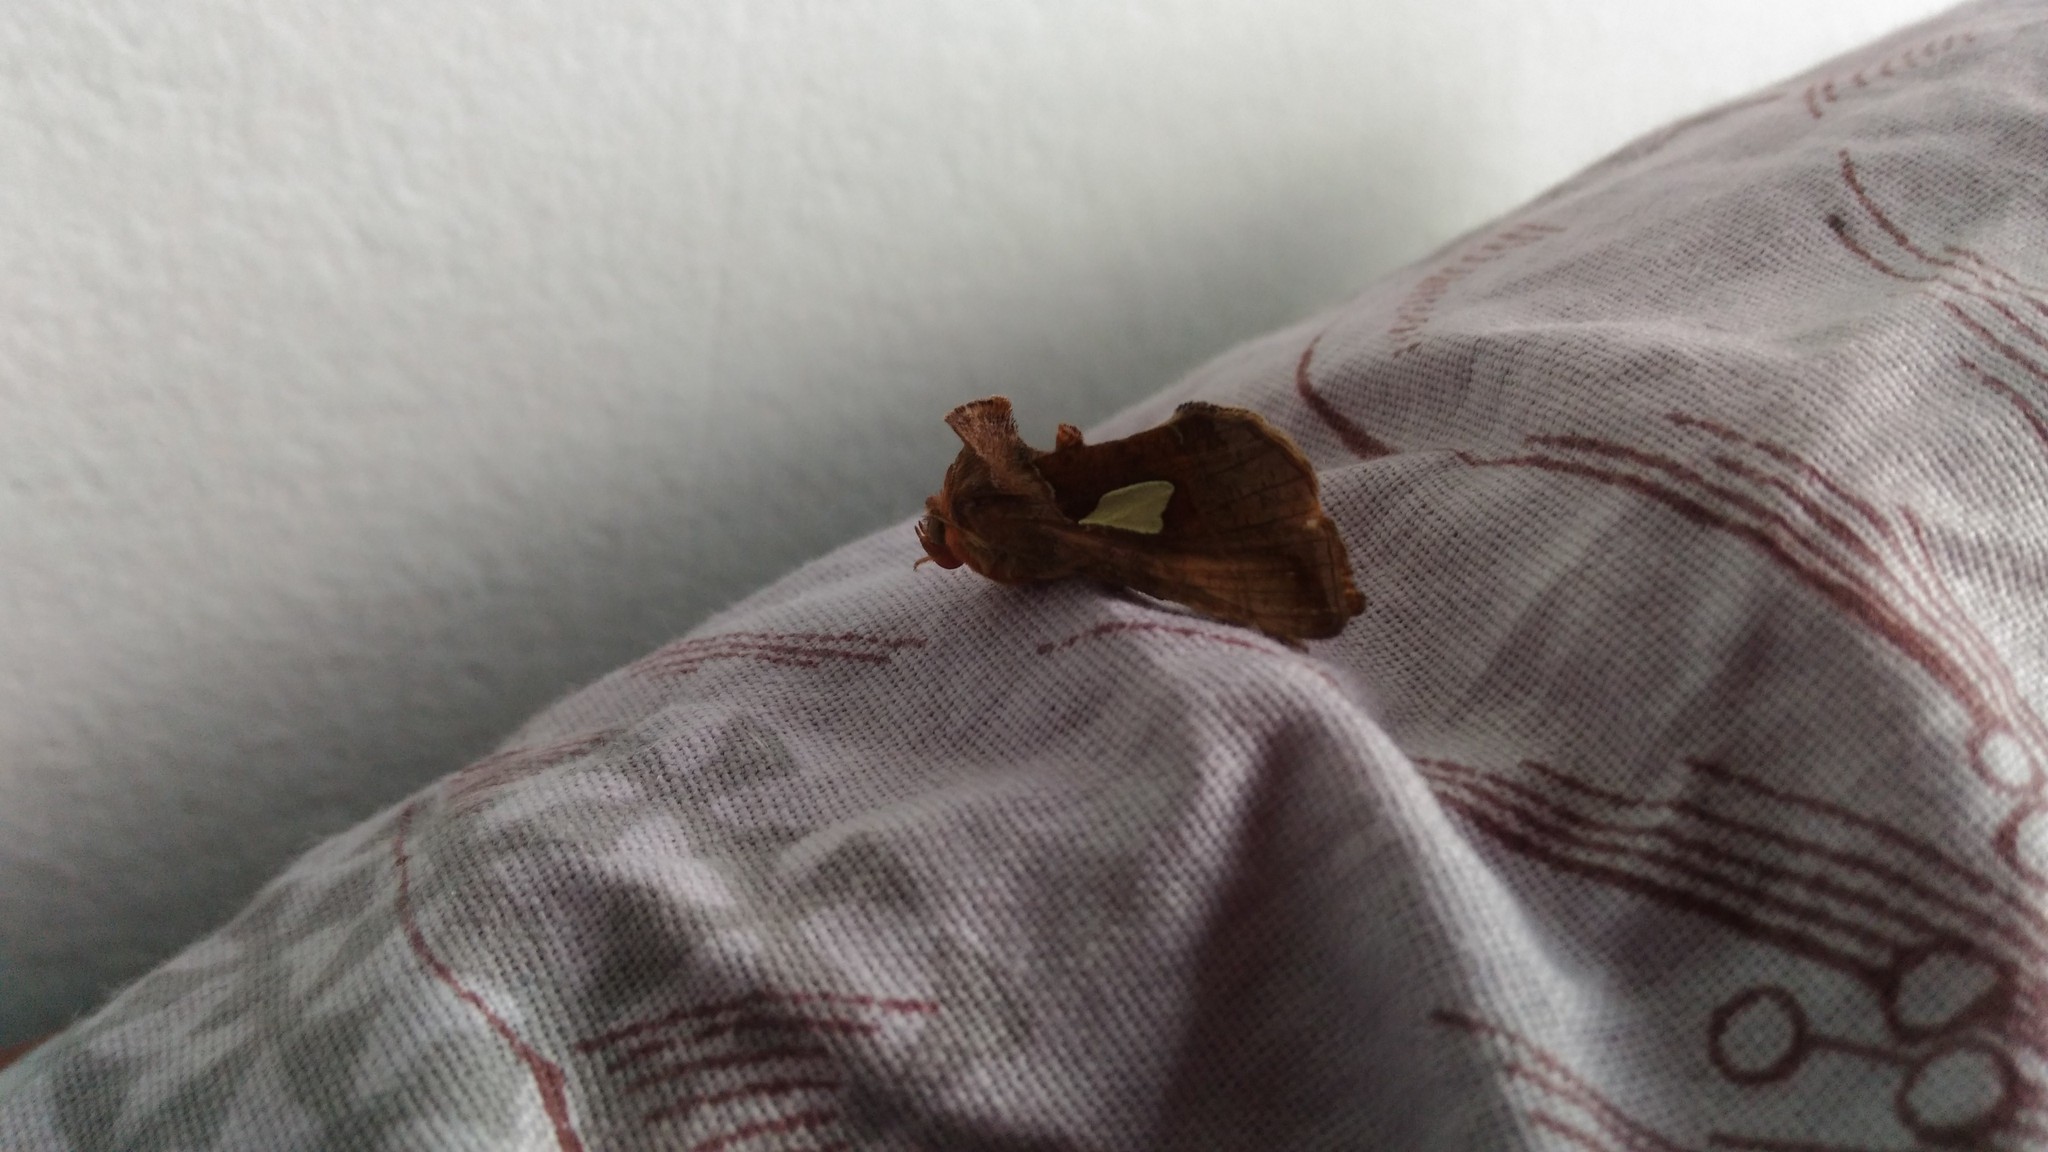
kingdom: Animalia
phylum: Arthropoda
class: Insecta
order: Lepidoptera
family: Noctuidae
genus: Autographa
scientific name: Autographa bractea
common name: Gold spangle
